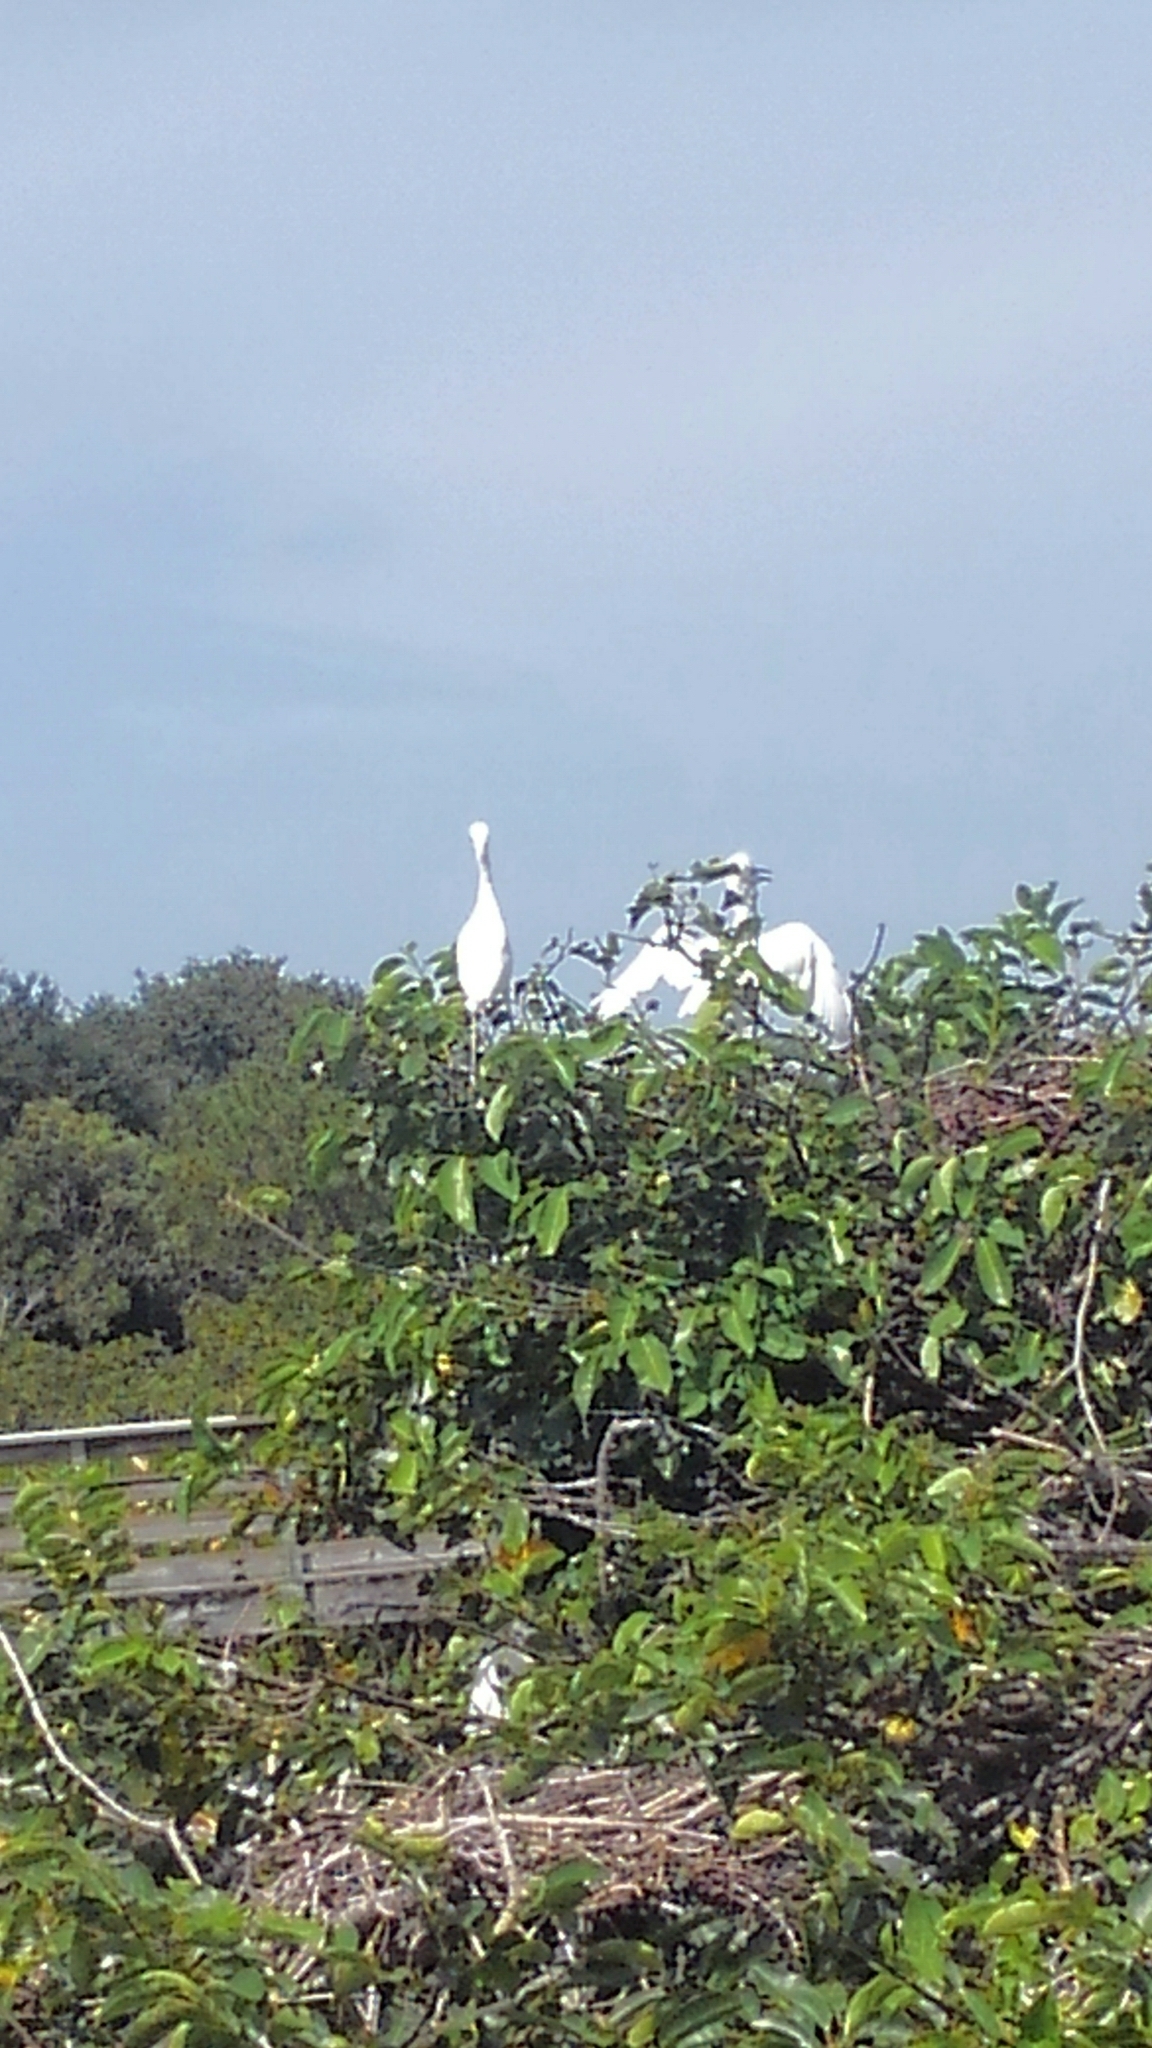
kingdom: Animalia
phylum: Chordata
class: Aves
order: Pelecaniformes
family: Ardeidae
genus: Bubulcus
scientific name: Bubulcus ibis
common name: Cattle egret
